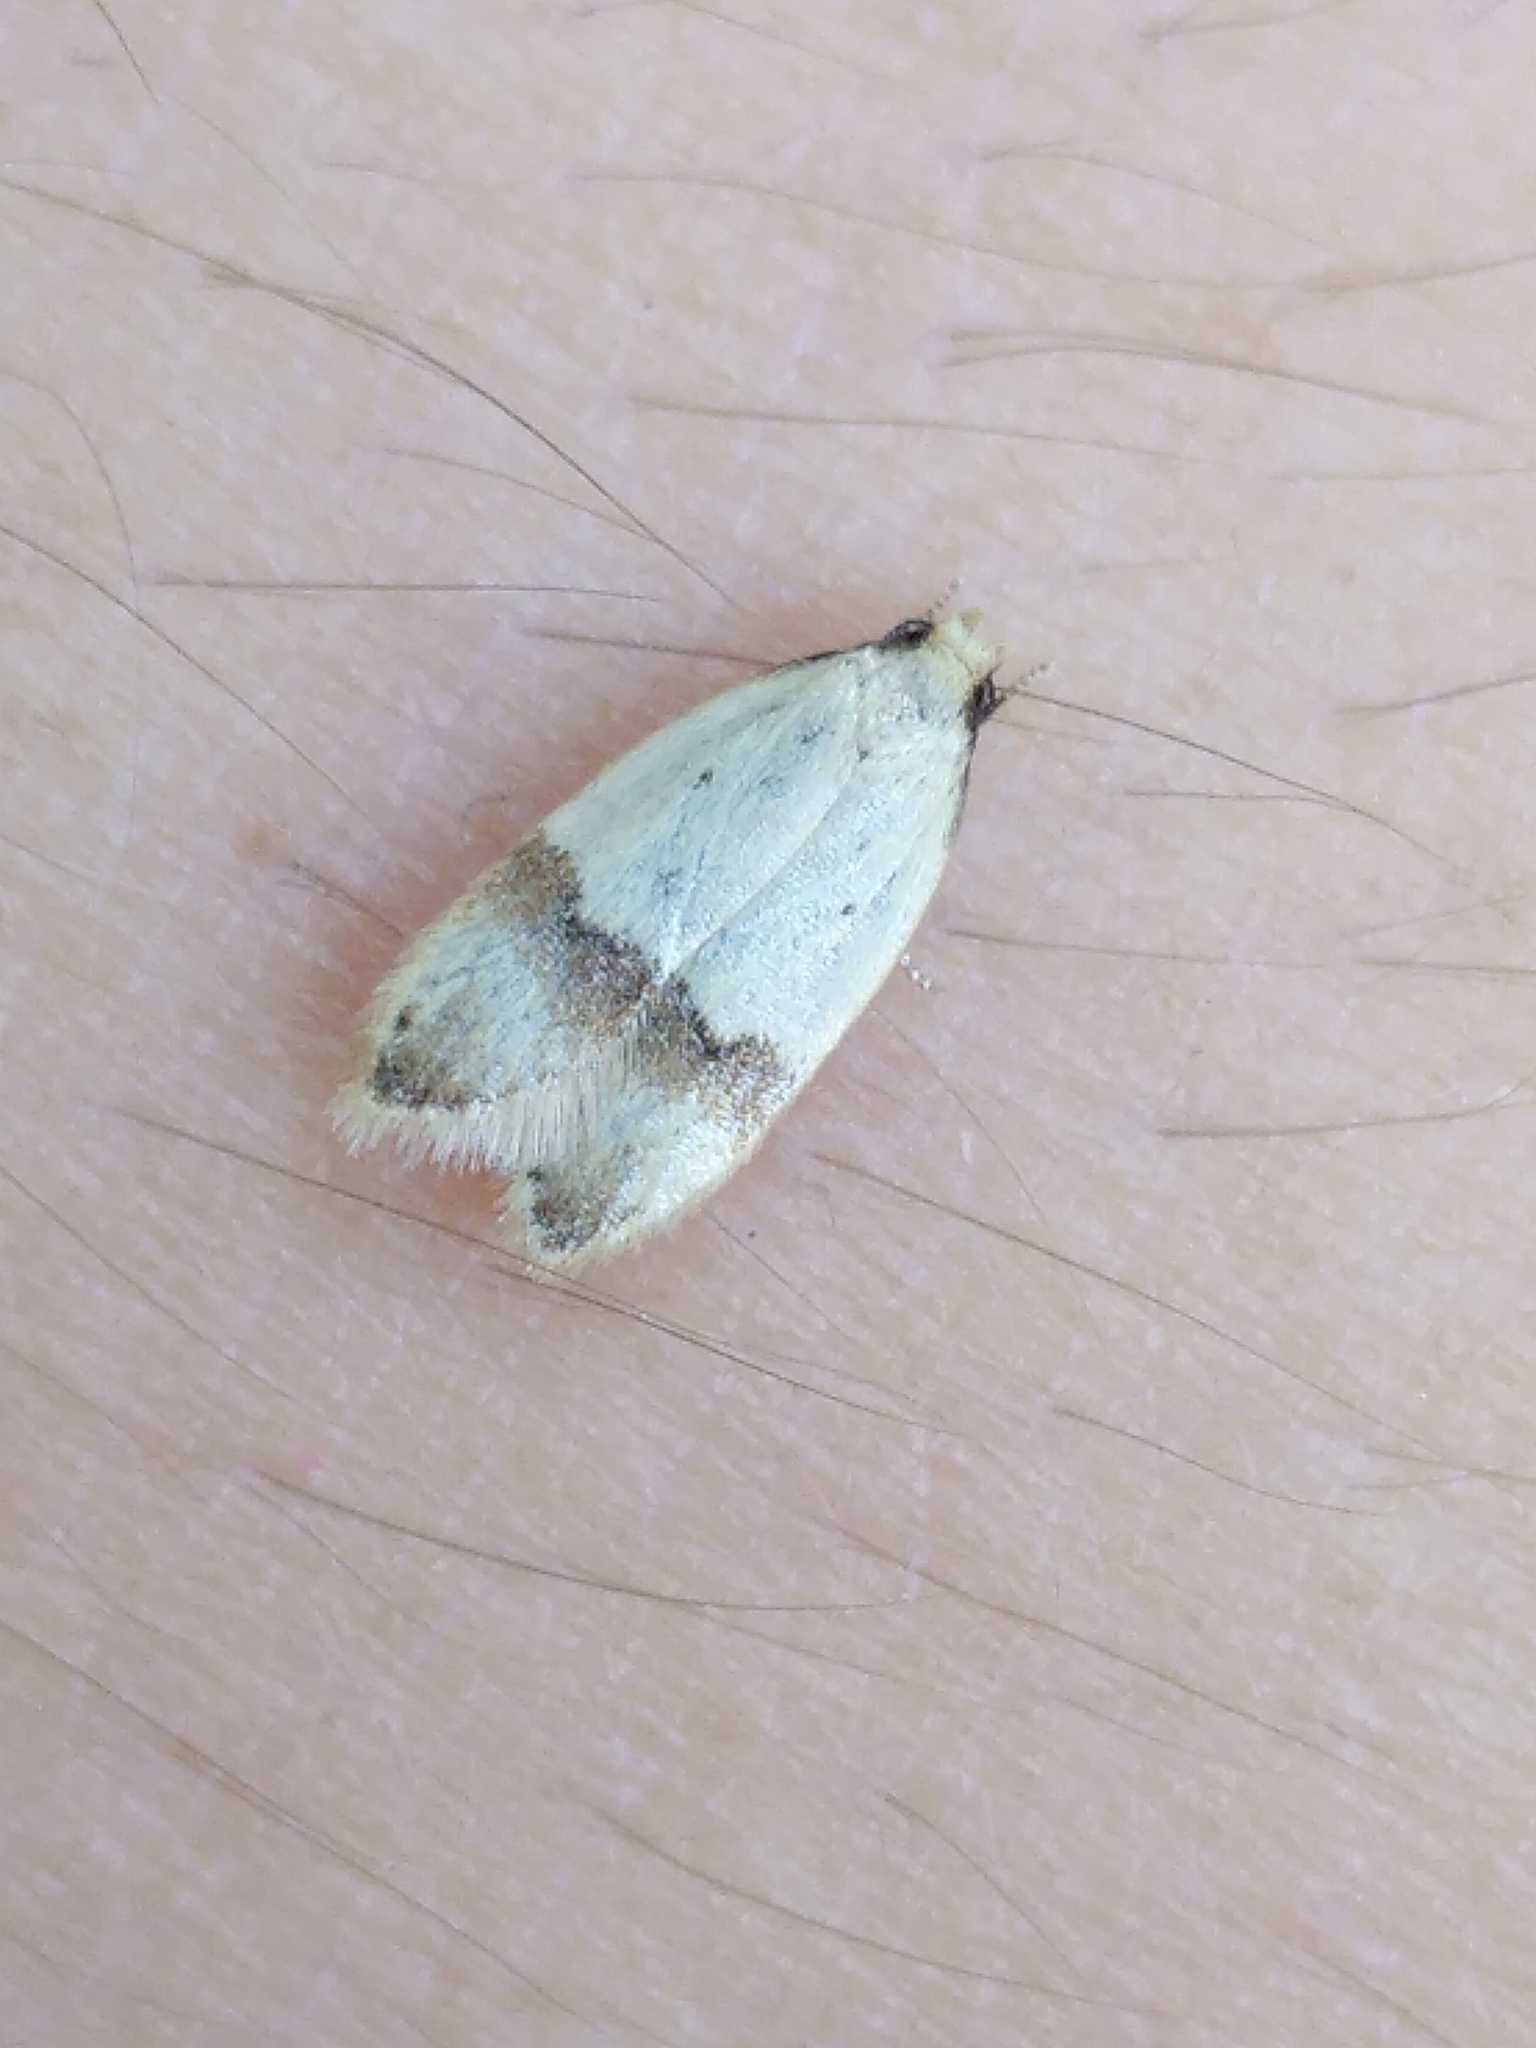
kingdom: Animalia
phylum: Arthropoda
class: Insecta
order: Lepidoptera
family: Peleopodidae
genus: Odites
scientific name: Odites kollarella
